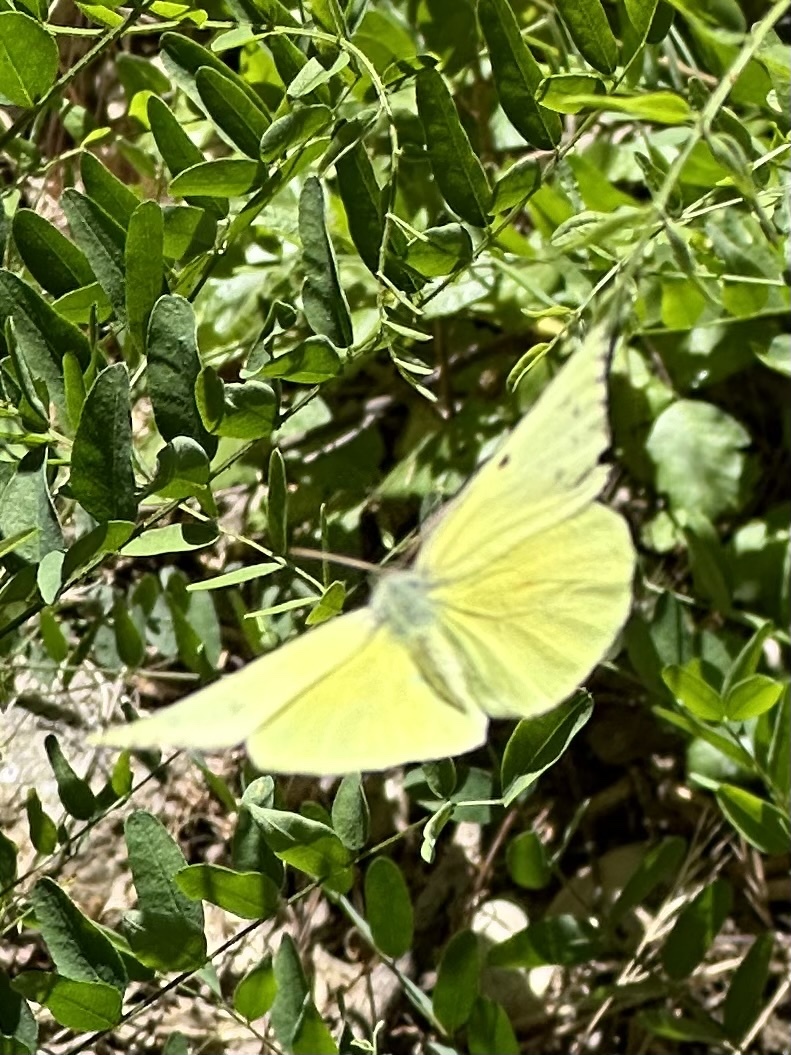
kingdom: Animalia
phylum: Arthropoda
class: Insecta
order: Lepidoptera
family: Pieridae
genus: Zerene
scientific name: Zerene eurydice
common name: California dogface
